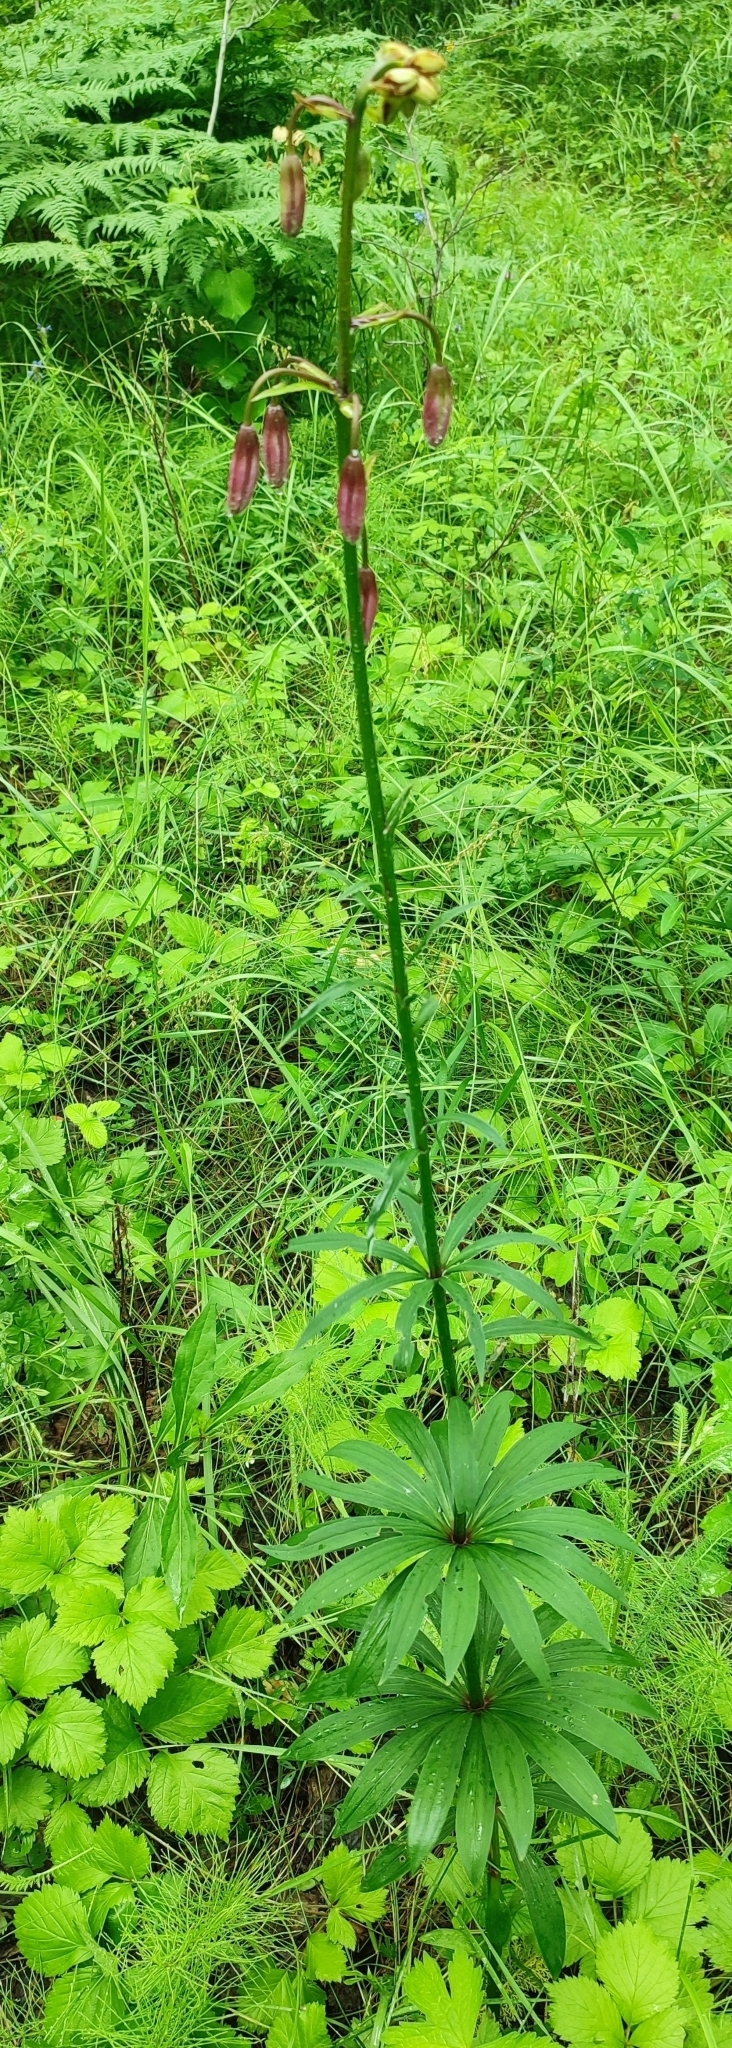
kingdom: Plantae
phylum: Tracheophyta
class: Liliopsida
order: Liliales
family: Liliaceae
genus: Lilium
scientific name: Lilium martagon
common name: Martagon lily
